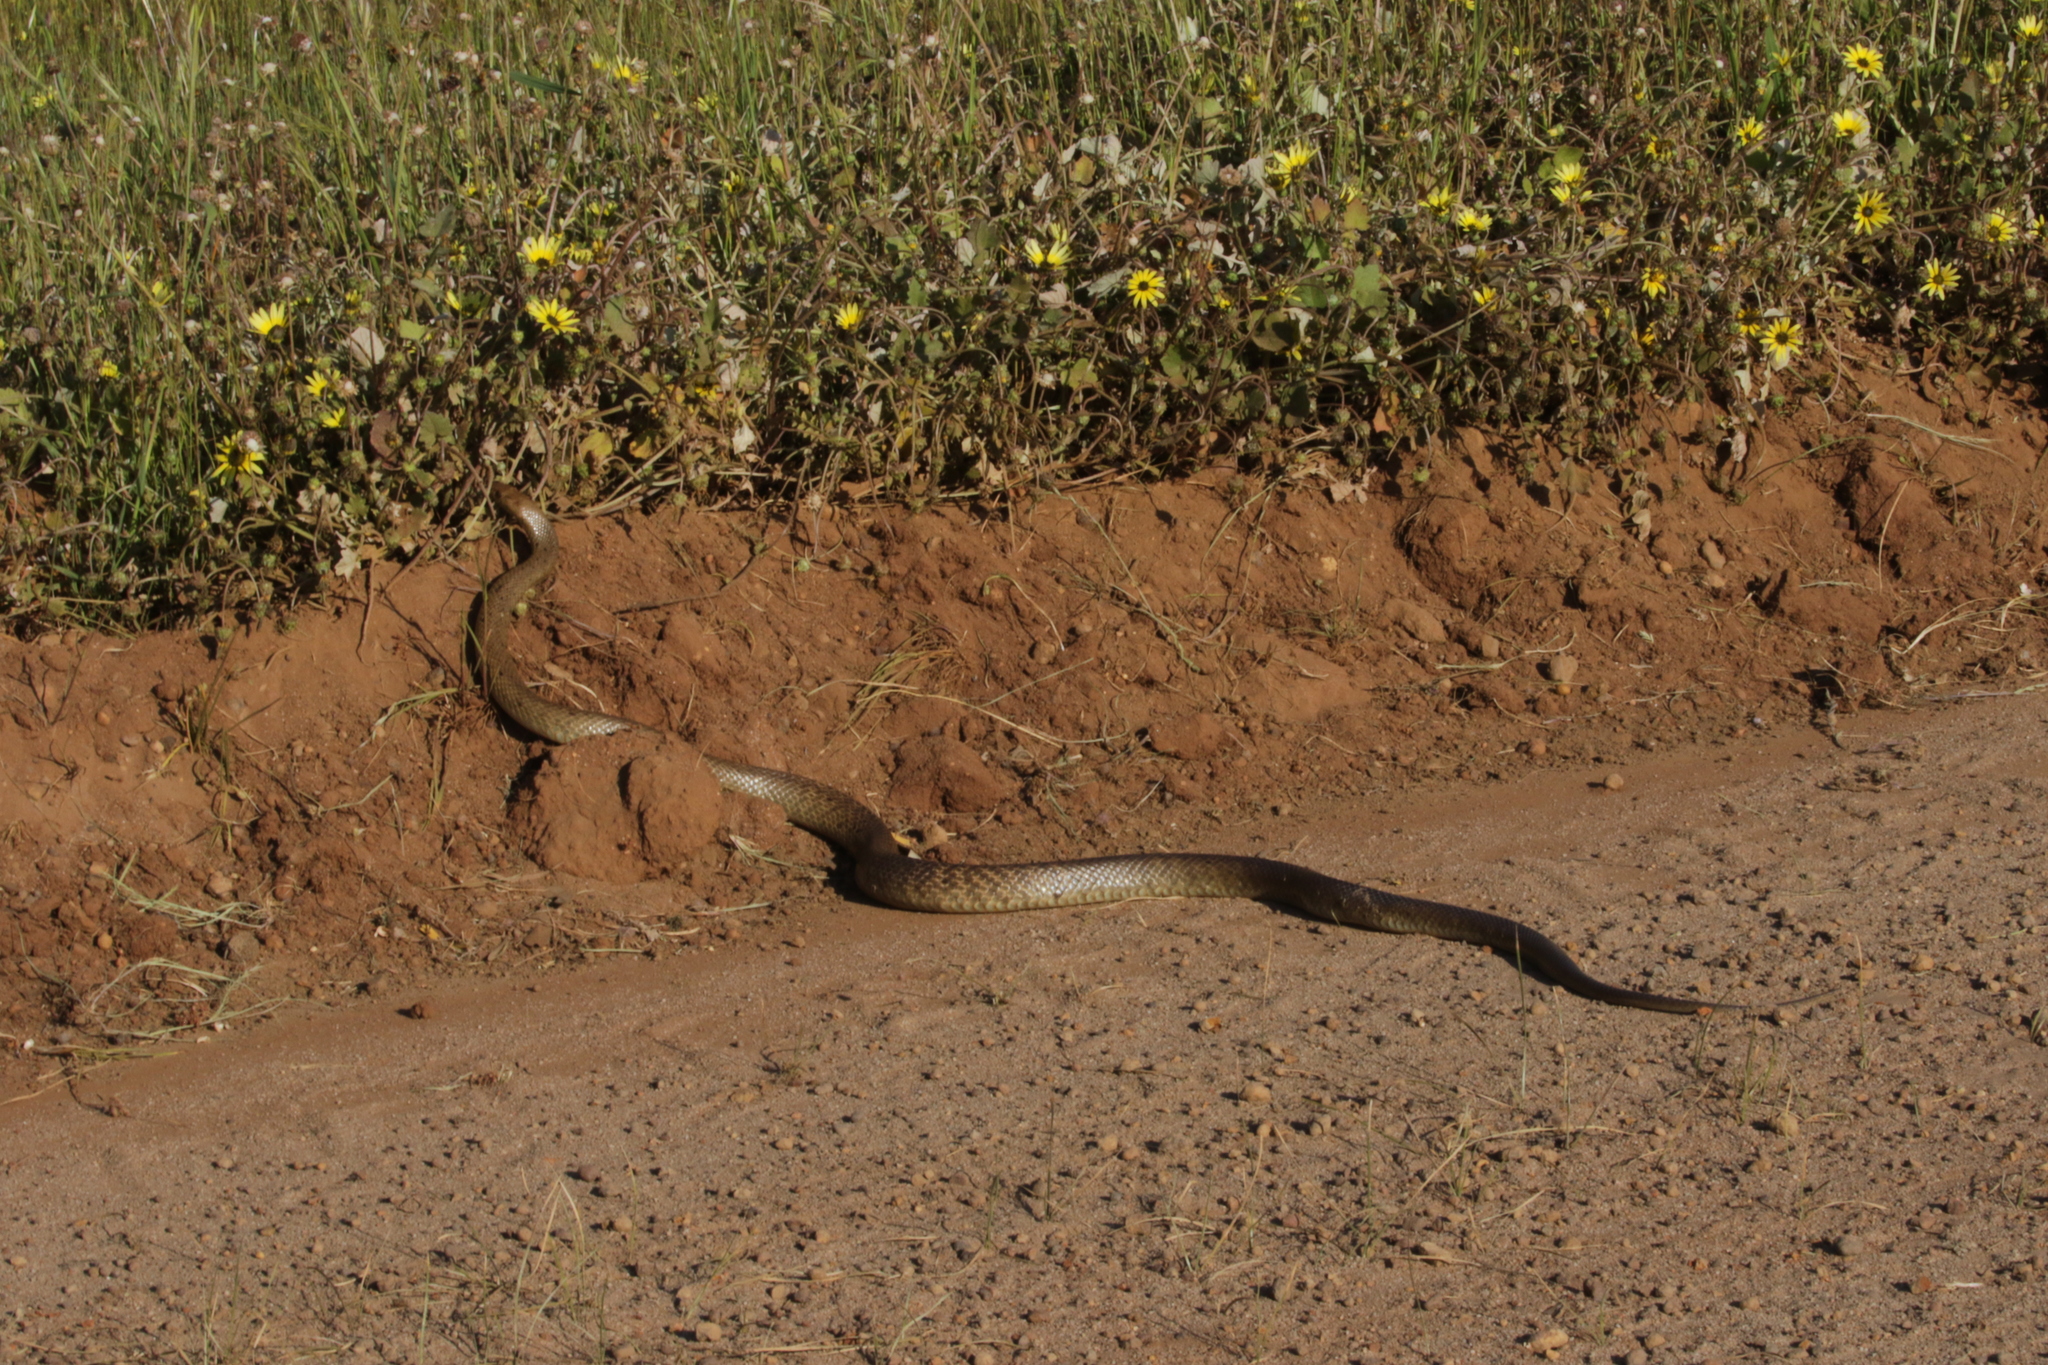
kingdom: Animalia
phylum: Chordata
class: Squamata
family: Elapidae
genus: Pseudonaja
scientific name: Pseudonaja affinis
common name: Dugite
